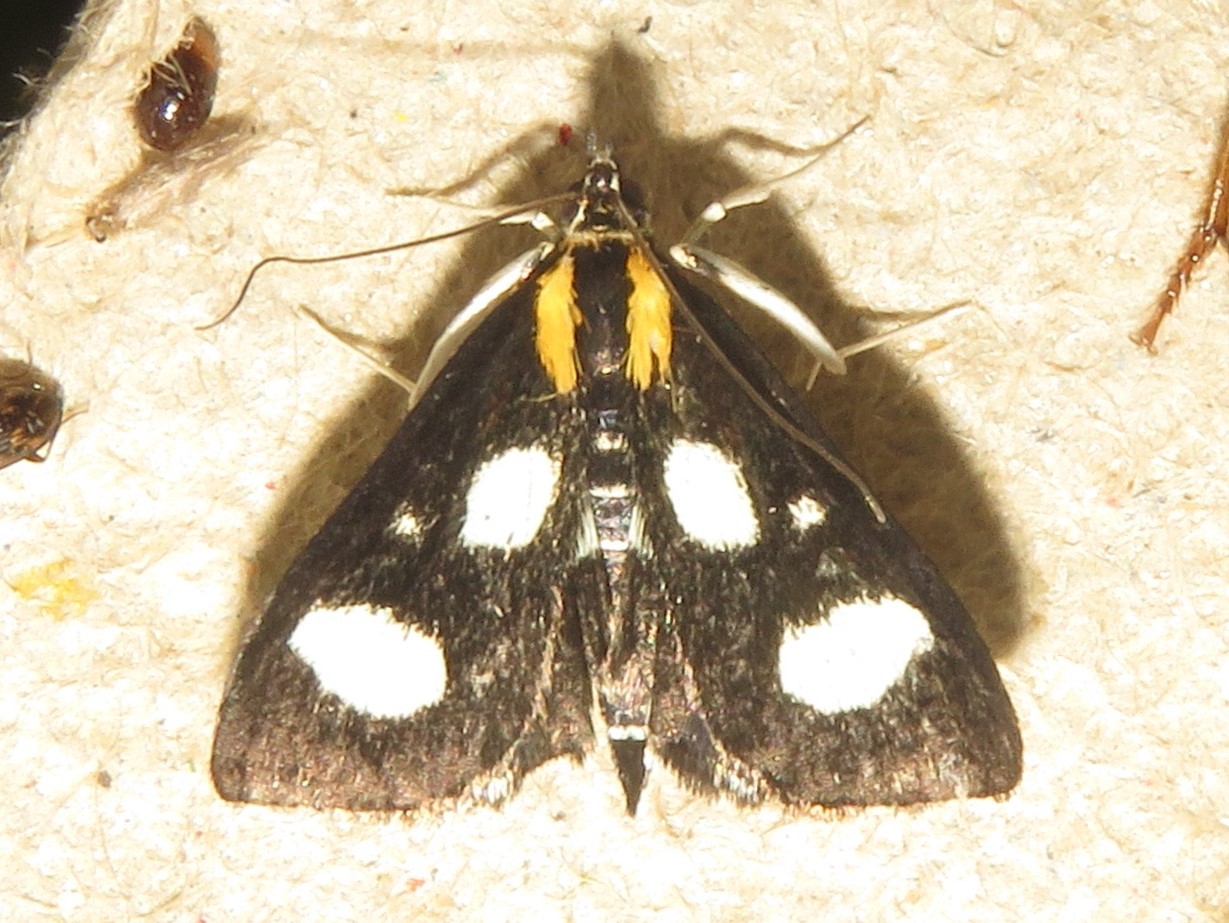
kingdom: Animalia
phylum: Arthropoda
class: Insecta
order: Lepidoptera
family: Crambidae
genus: Anania
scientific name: Anania funebris
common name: White-spotted sable moth
